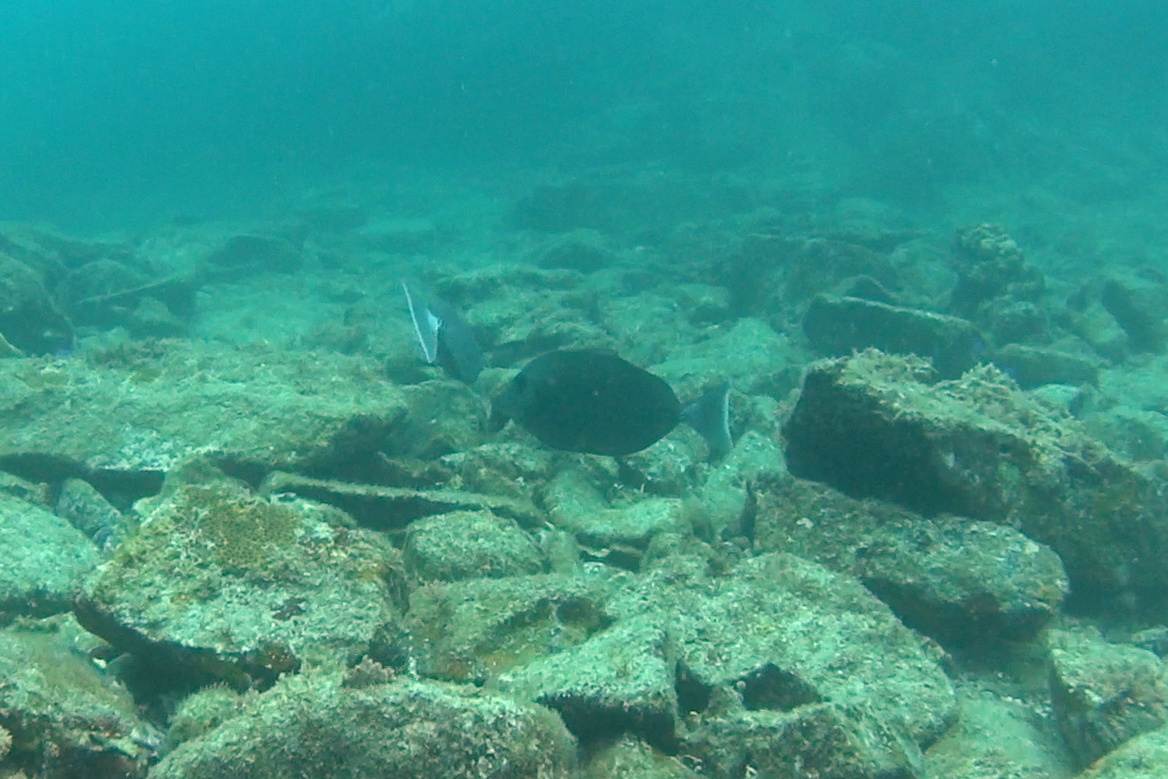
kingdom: Animalia
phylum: Chordata
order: Perciformes
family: Acanthuridae
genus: Prionurus
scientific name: Prionurus scalprum
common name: Japanese sawtail
